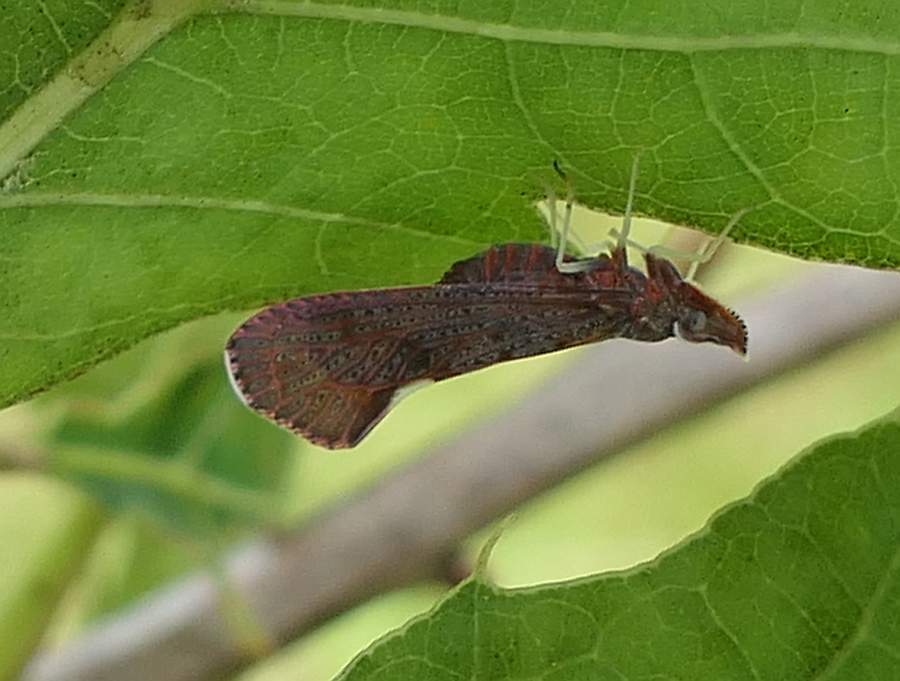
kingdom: Animalia
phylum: Arthropoda
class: Insecta
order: Hemiptera
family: Derbidae
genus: Apache
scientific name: Apache degeeri
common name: Red-fanned planthopper
